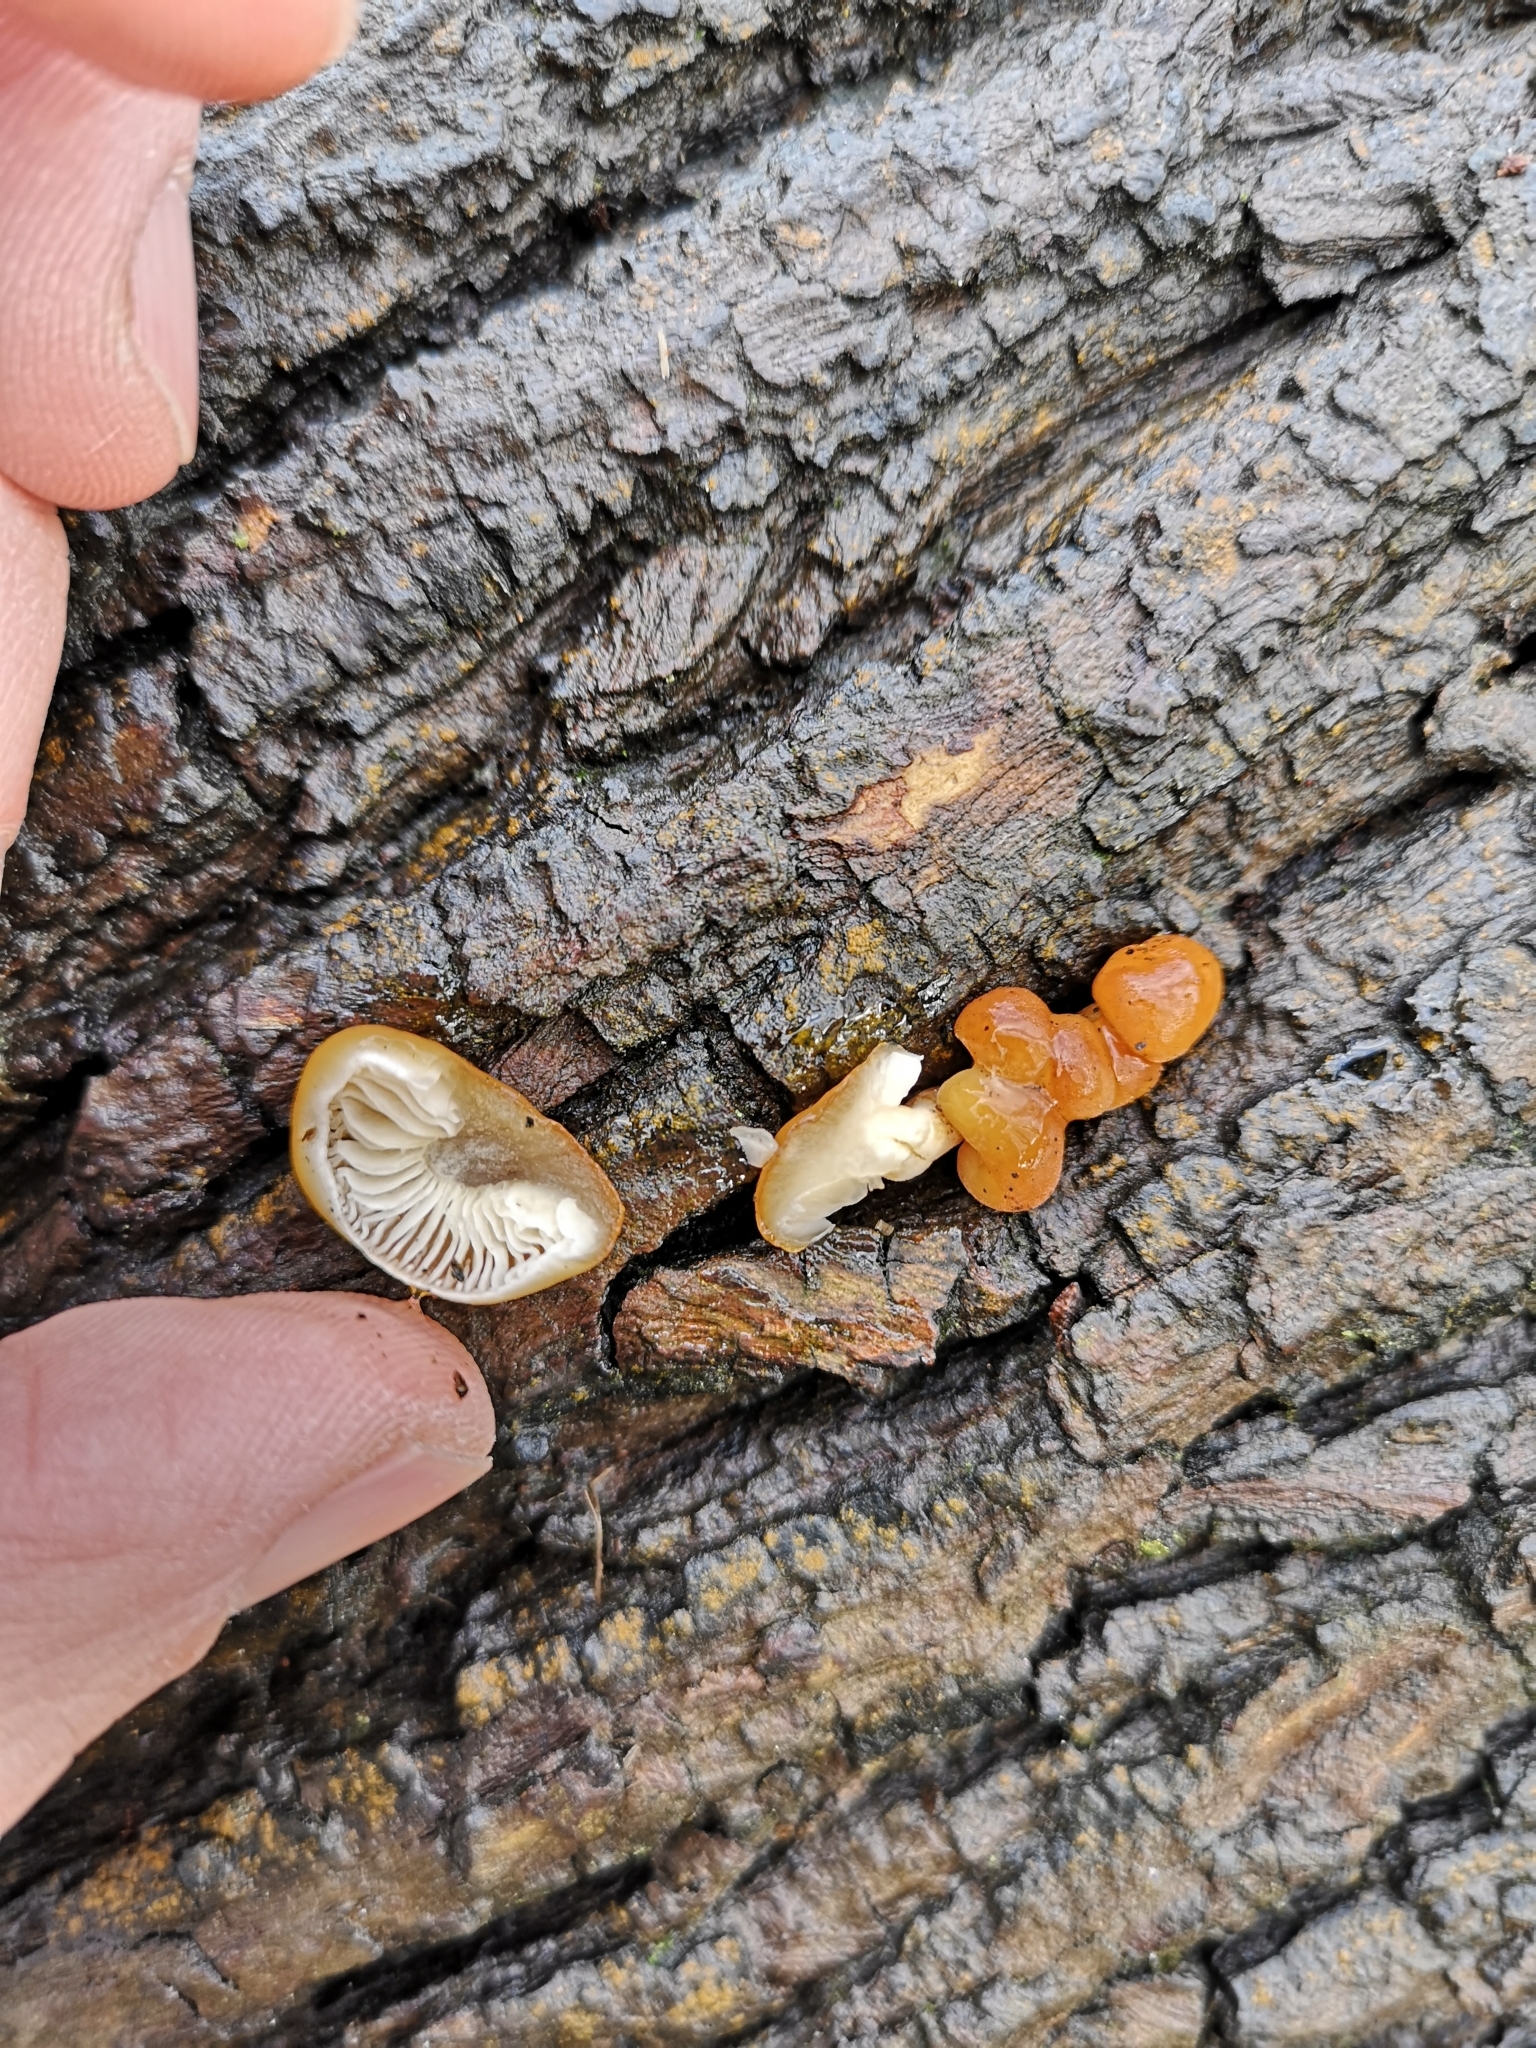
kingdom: Fungi
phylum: Basidiomycota
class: Agaricomycetes
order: Agaricales
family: Physalacriaceae
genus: Flammulina
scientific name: Flammulina
